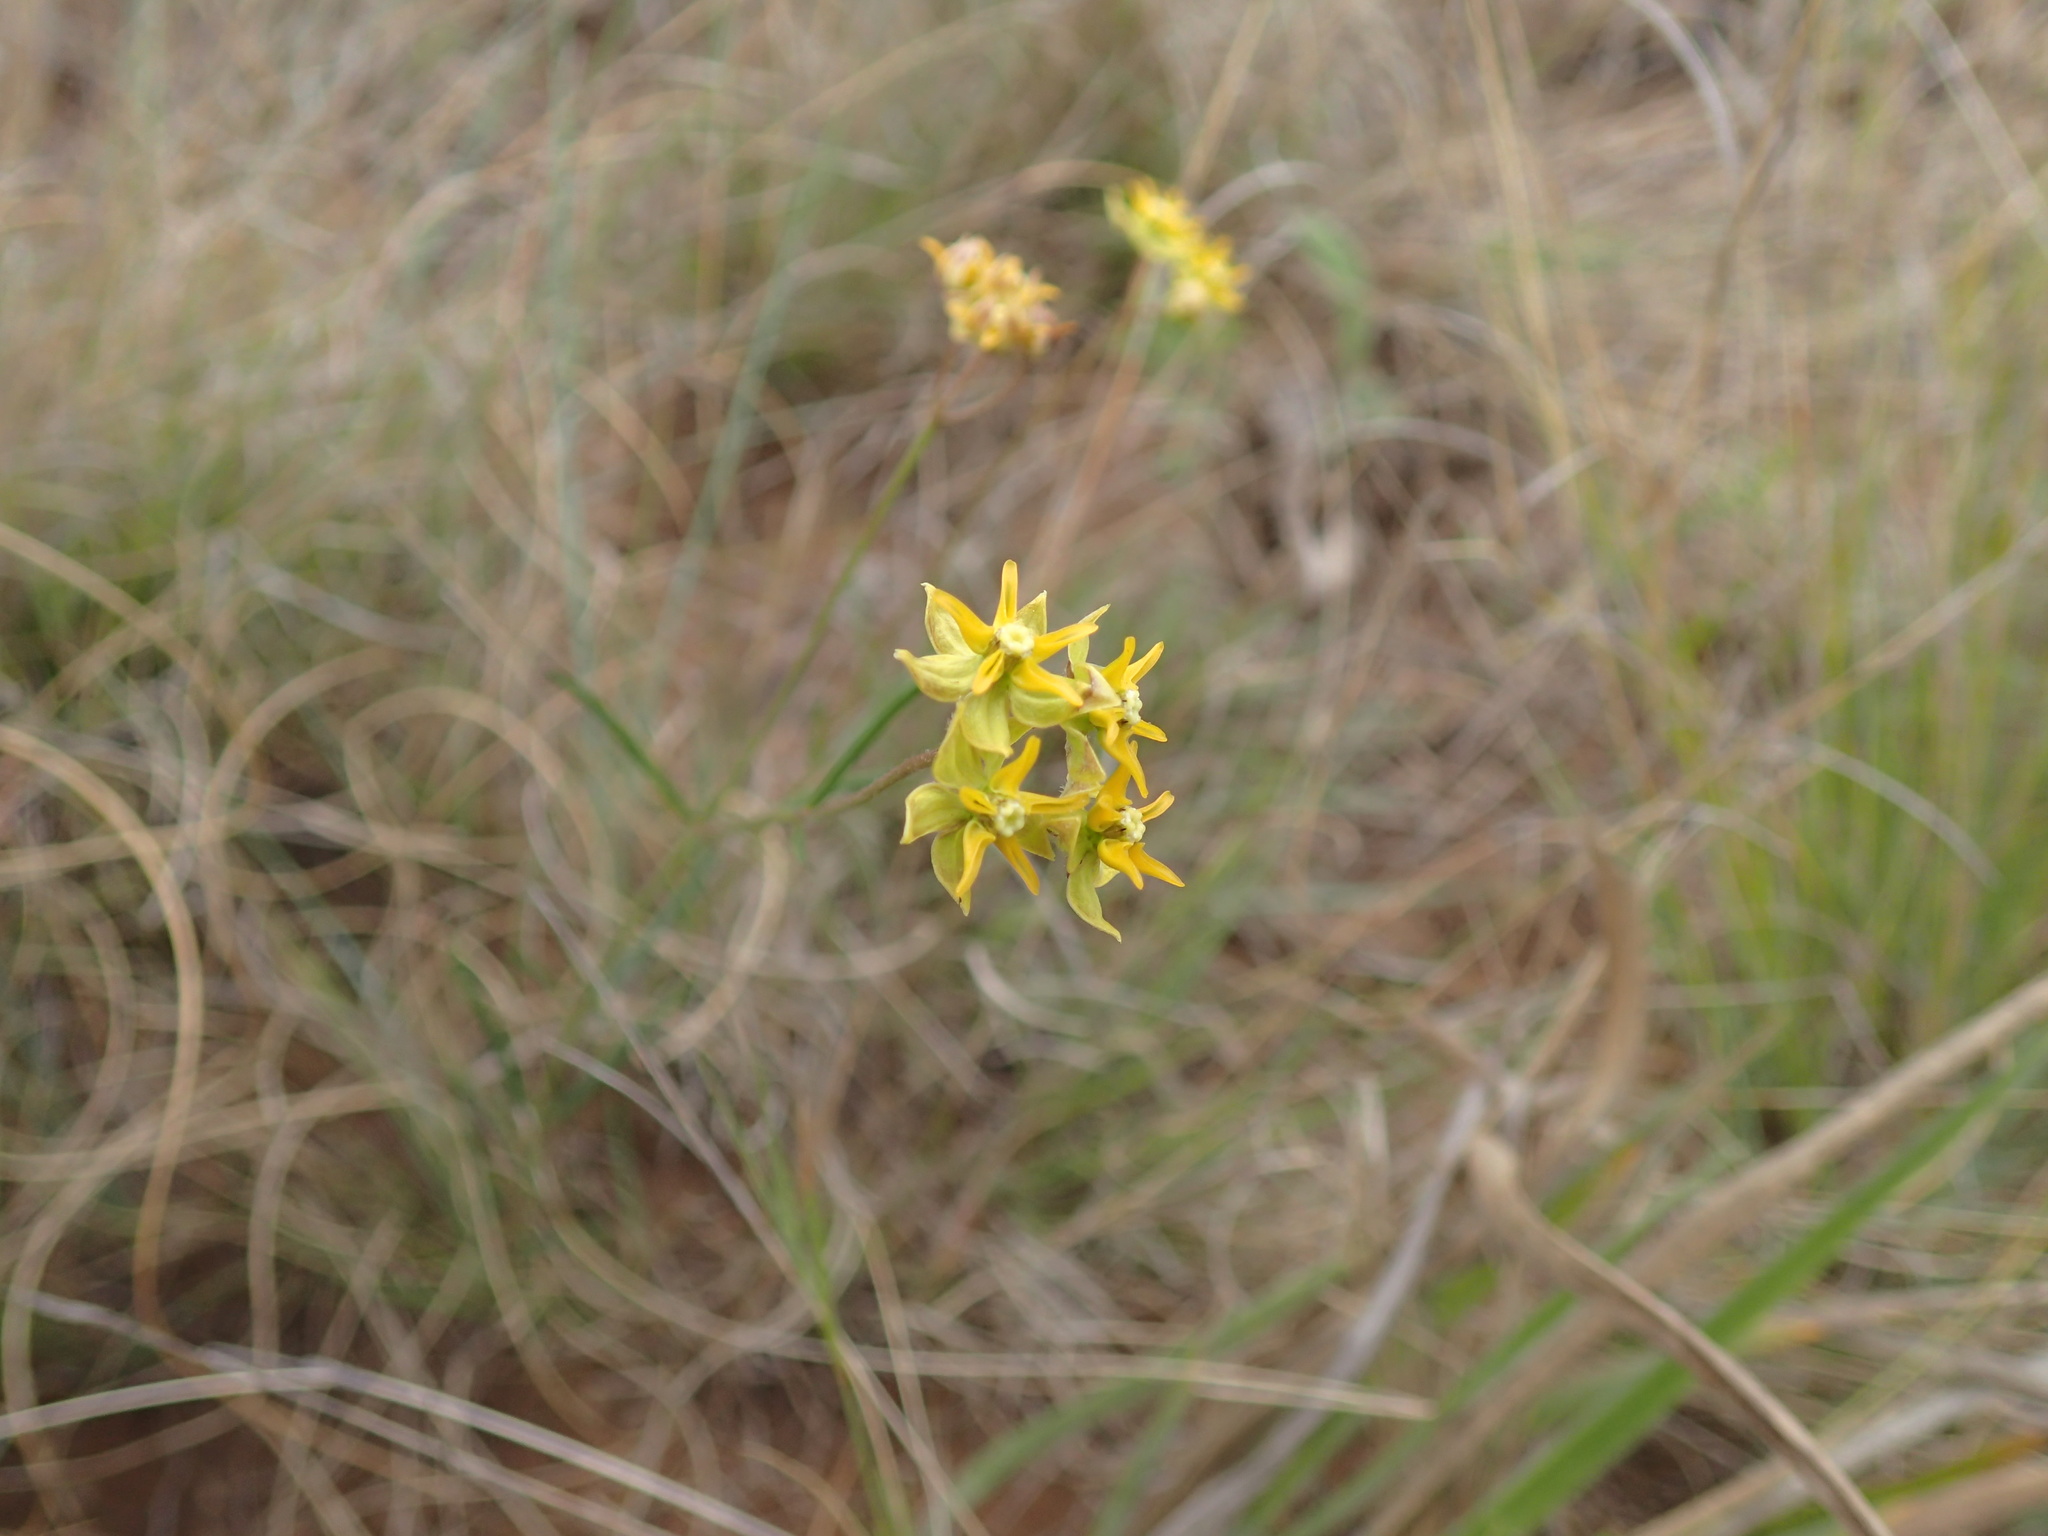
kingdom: Plantae
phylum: Tracheophyta
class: Magnoliopsida
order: Gentianales
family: Apocynaceae
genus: Asclepias
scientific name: Asclepias aurea
